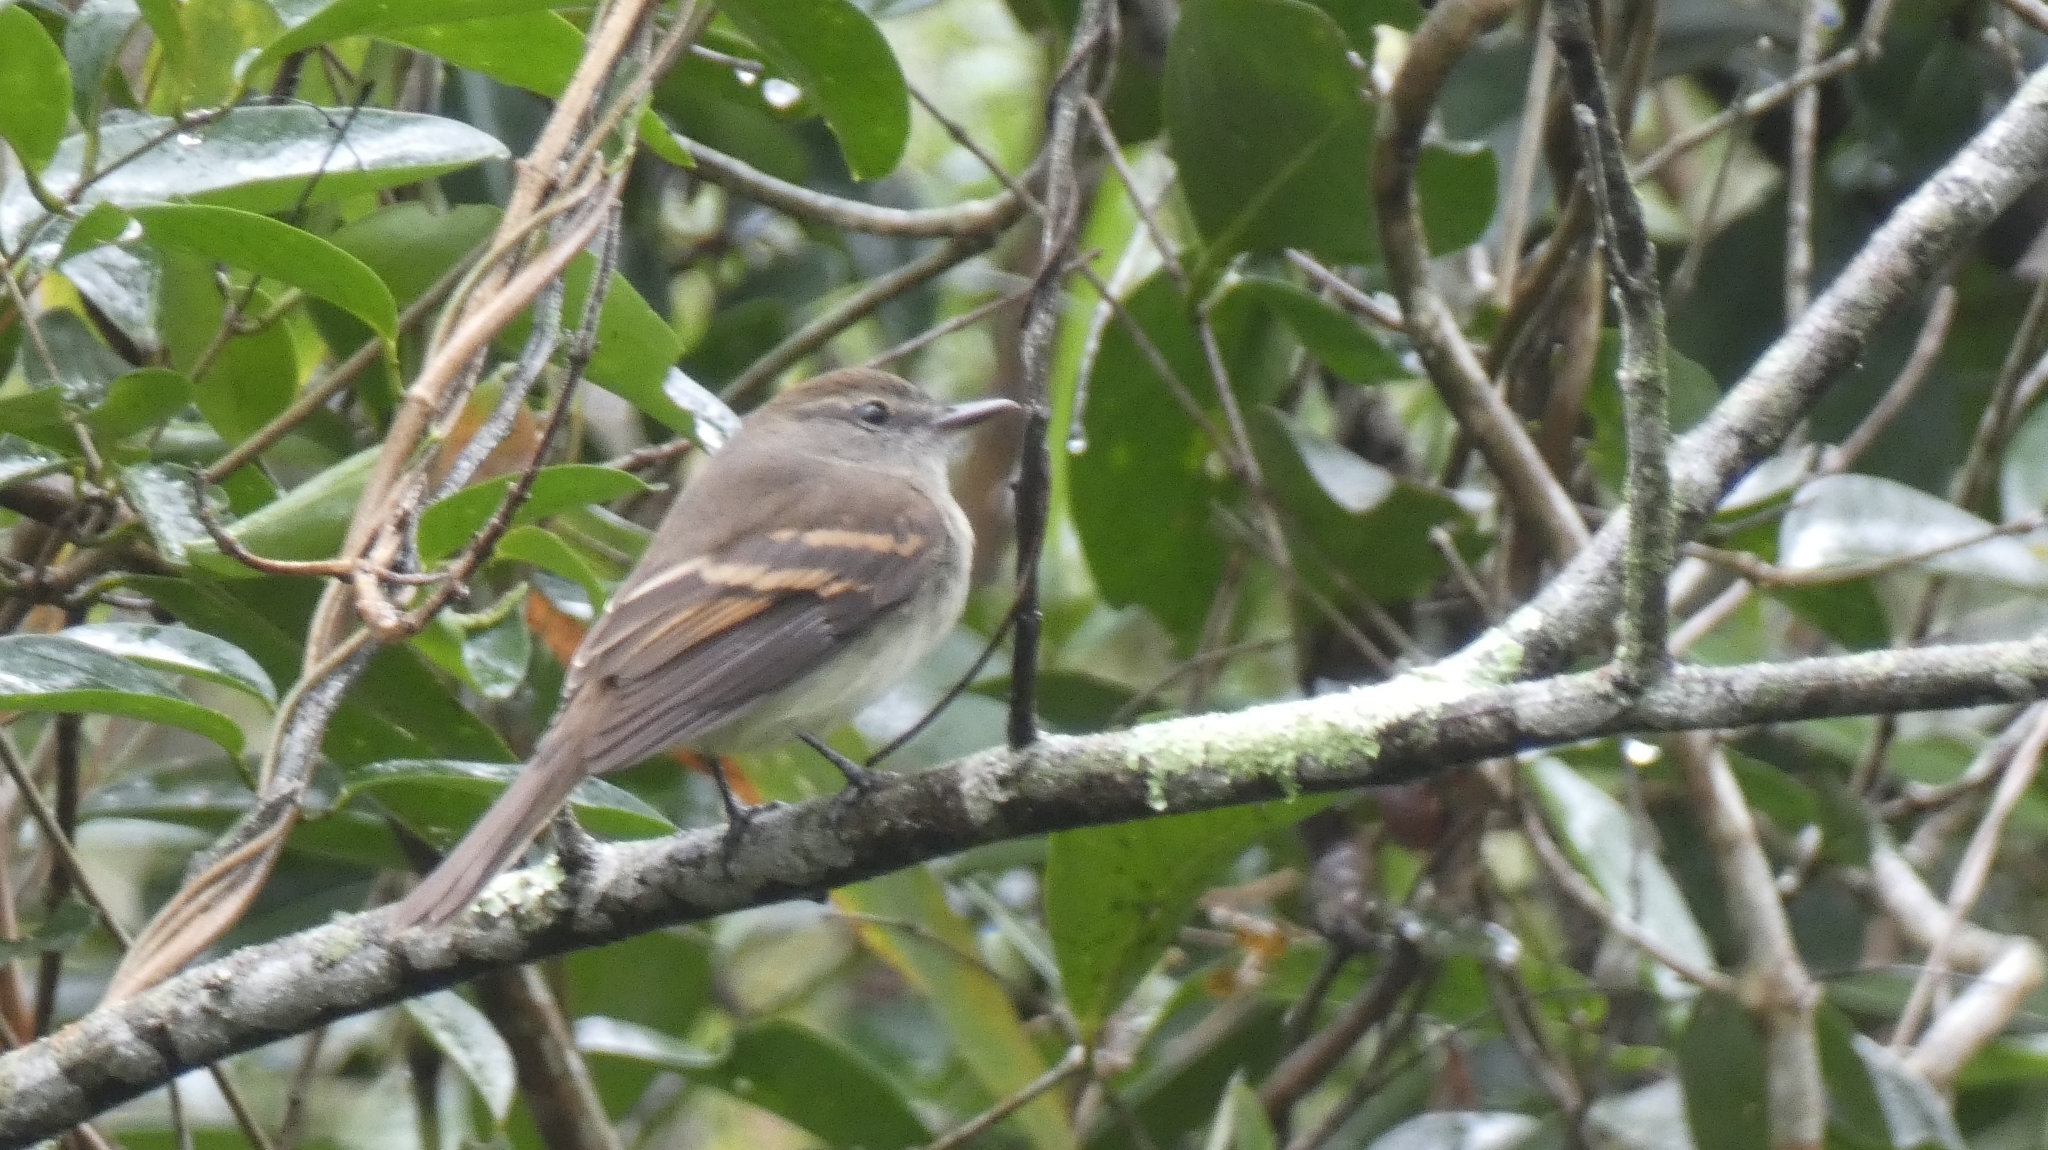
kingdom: Animalia
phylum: Chordata
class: Aves
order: Passeriformes
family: Tyrannidae
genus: Cnemotriccus
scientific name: Cnemotriccus fuscatus
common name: Fuscous flycatcher
